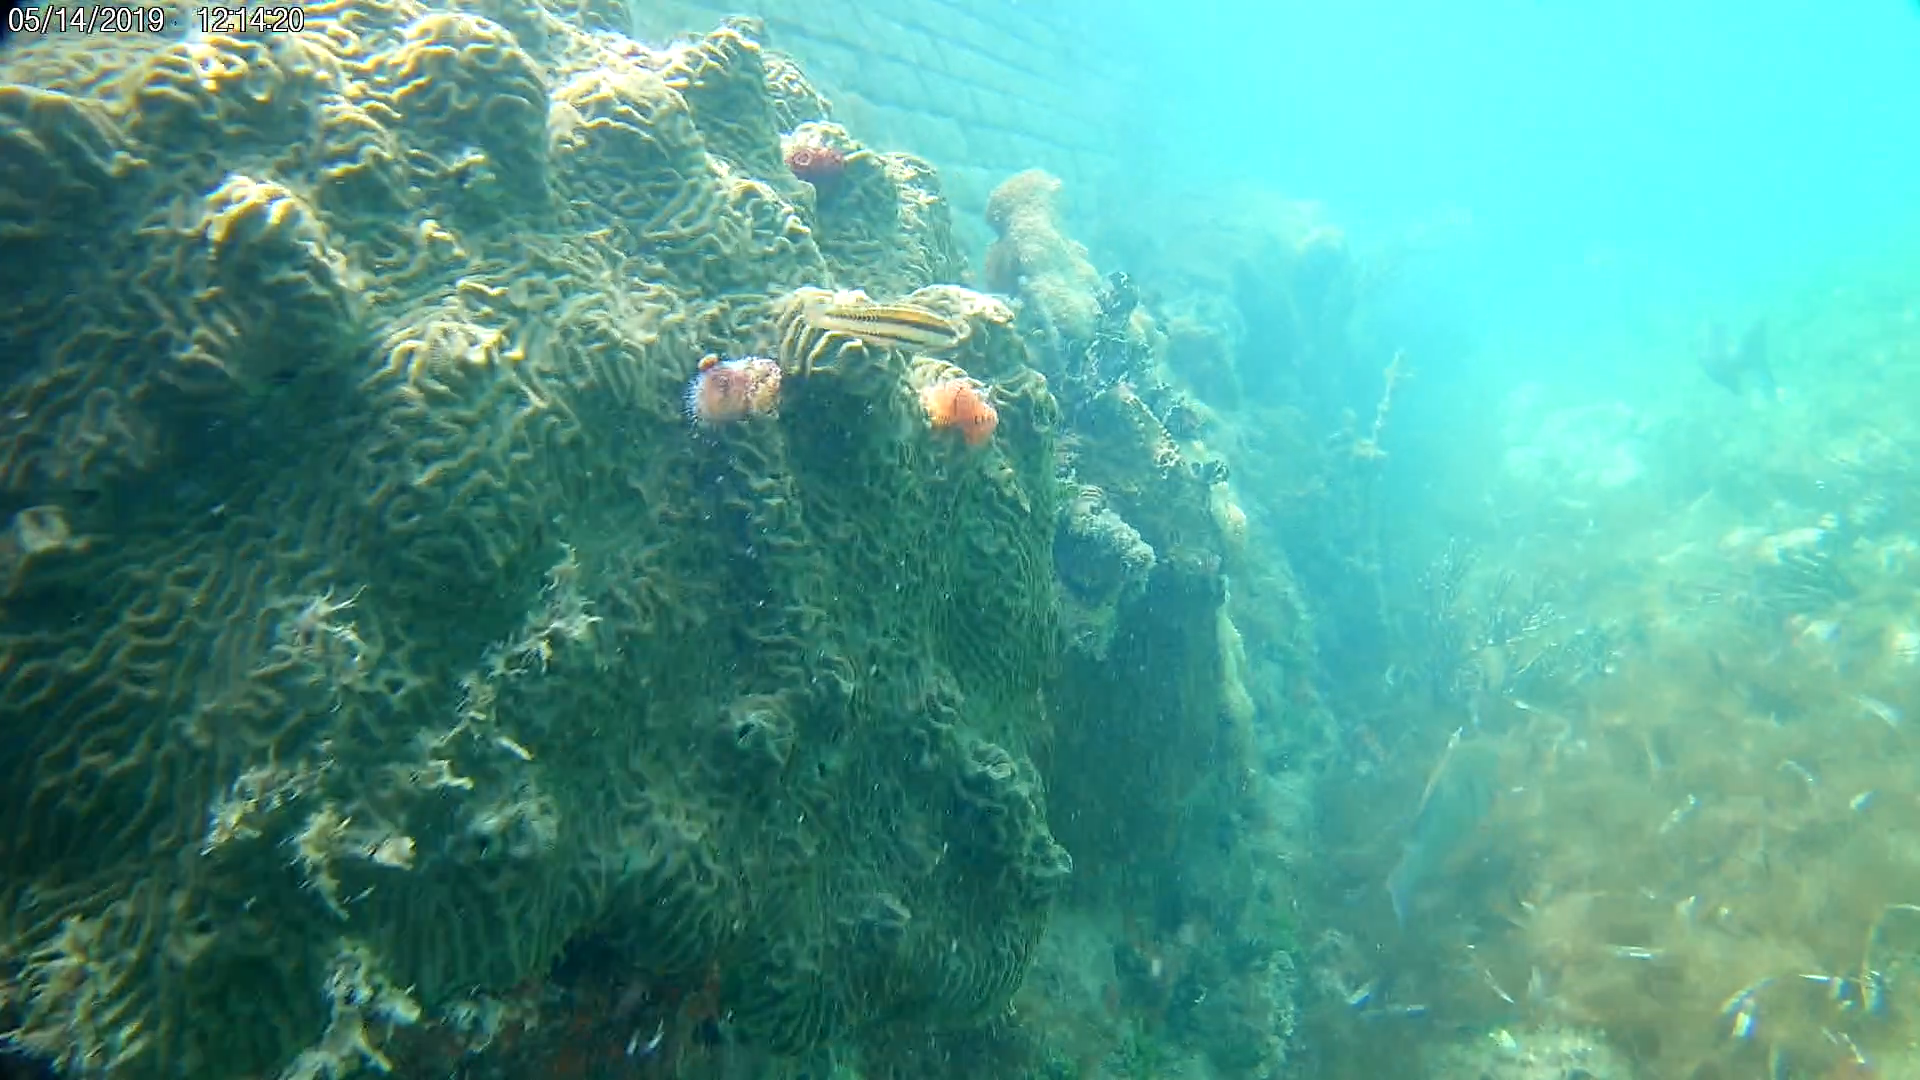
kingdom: Animalia
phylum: Chordata
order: Perciformes
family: Labridae
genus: Halichoeres
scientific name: Halichoeres bivittatus
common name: Slippery dick
